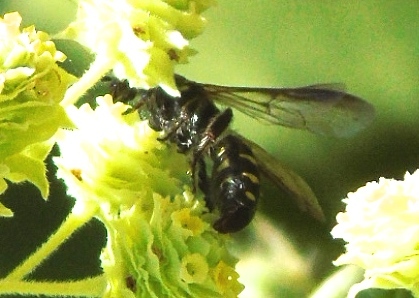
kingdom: Animalia
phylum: Arthropoda
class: Insecta
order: Hymenoptera
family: Tiphiidae
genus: Myzinum
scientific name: Myzinum
